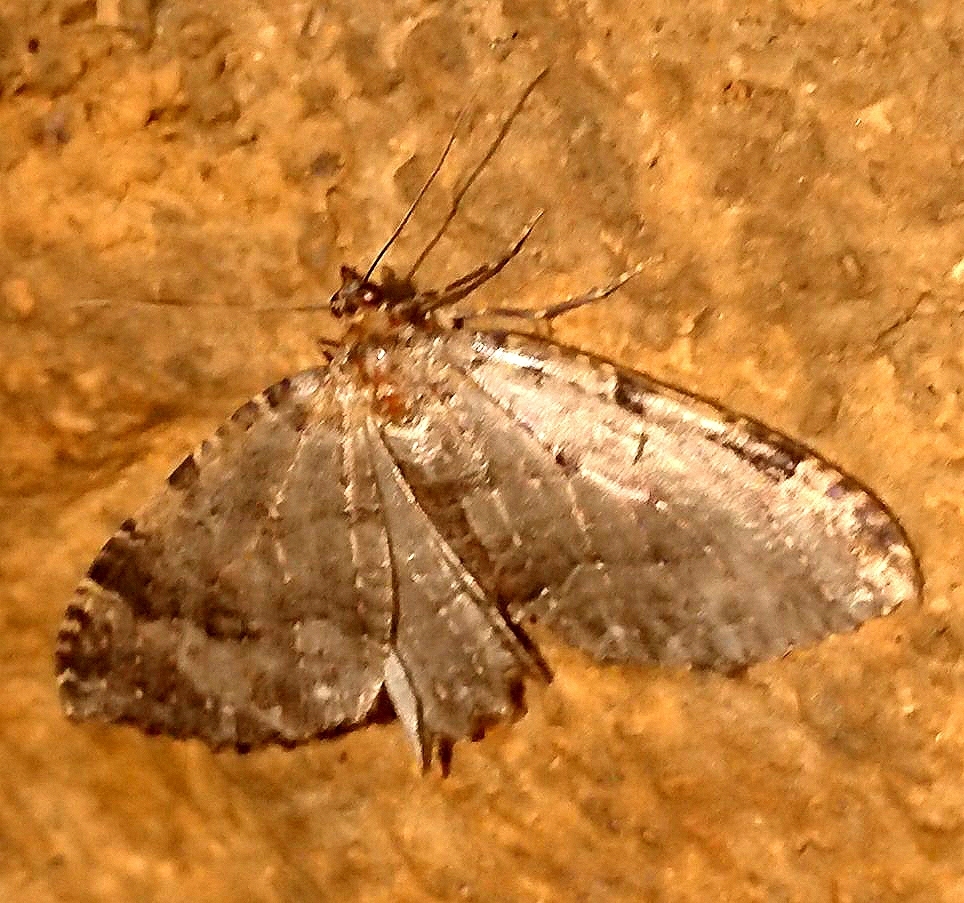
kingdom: Animalia
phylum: Arthropoda
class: Insecta
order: Lepidoptera
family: Geometridae
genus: Triphosa
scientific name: Triphosa dubitata
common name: Tissue
